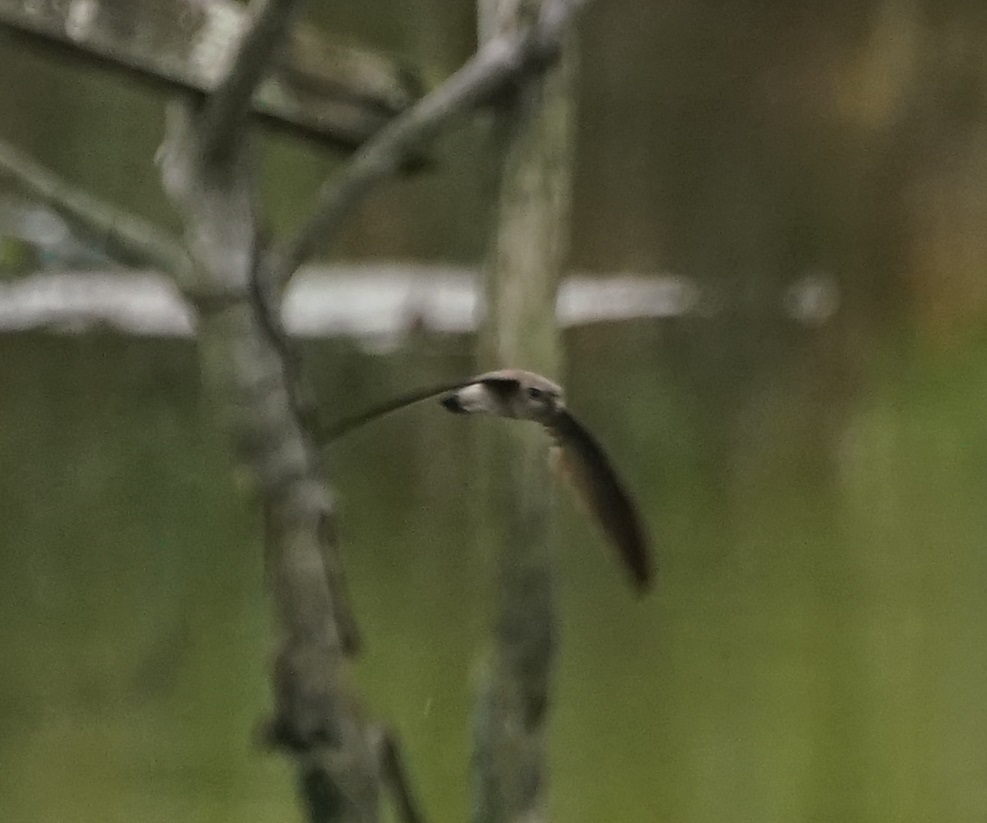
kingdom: Animalia
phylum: Chordata
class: Aves
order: Apodiformes
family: Apodidae
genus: Aerodramus
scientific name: Aerodramus
